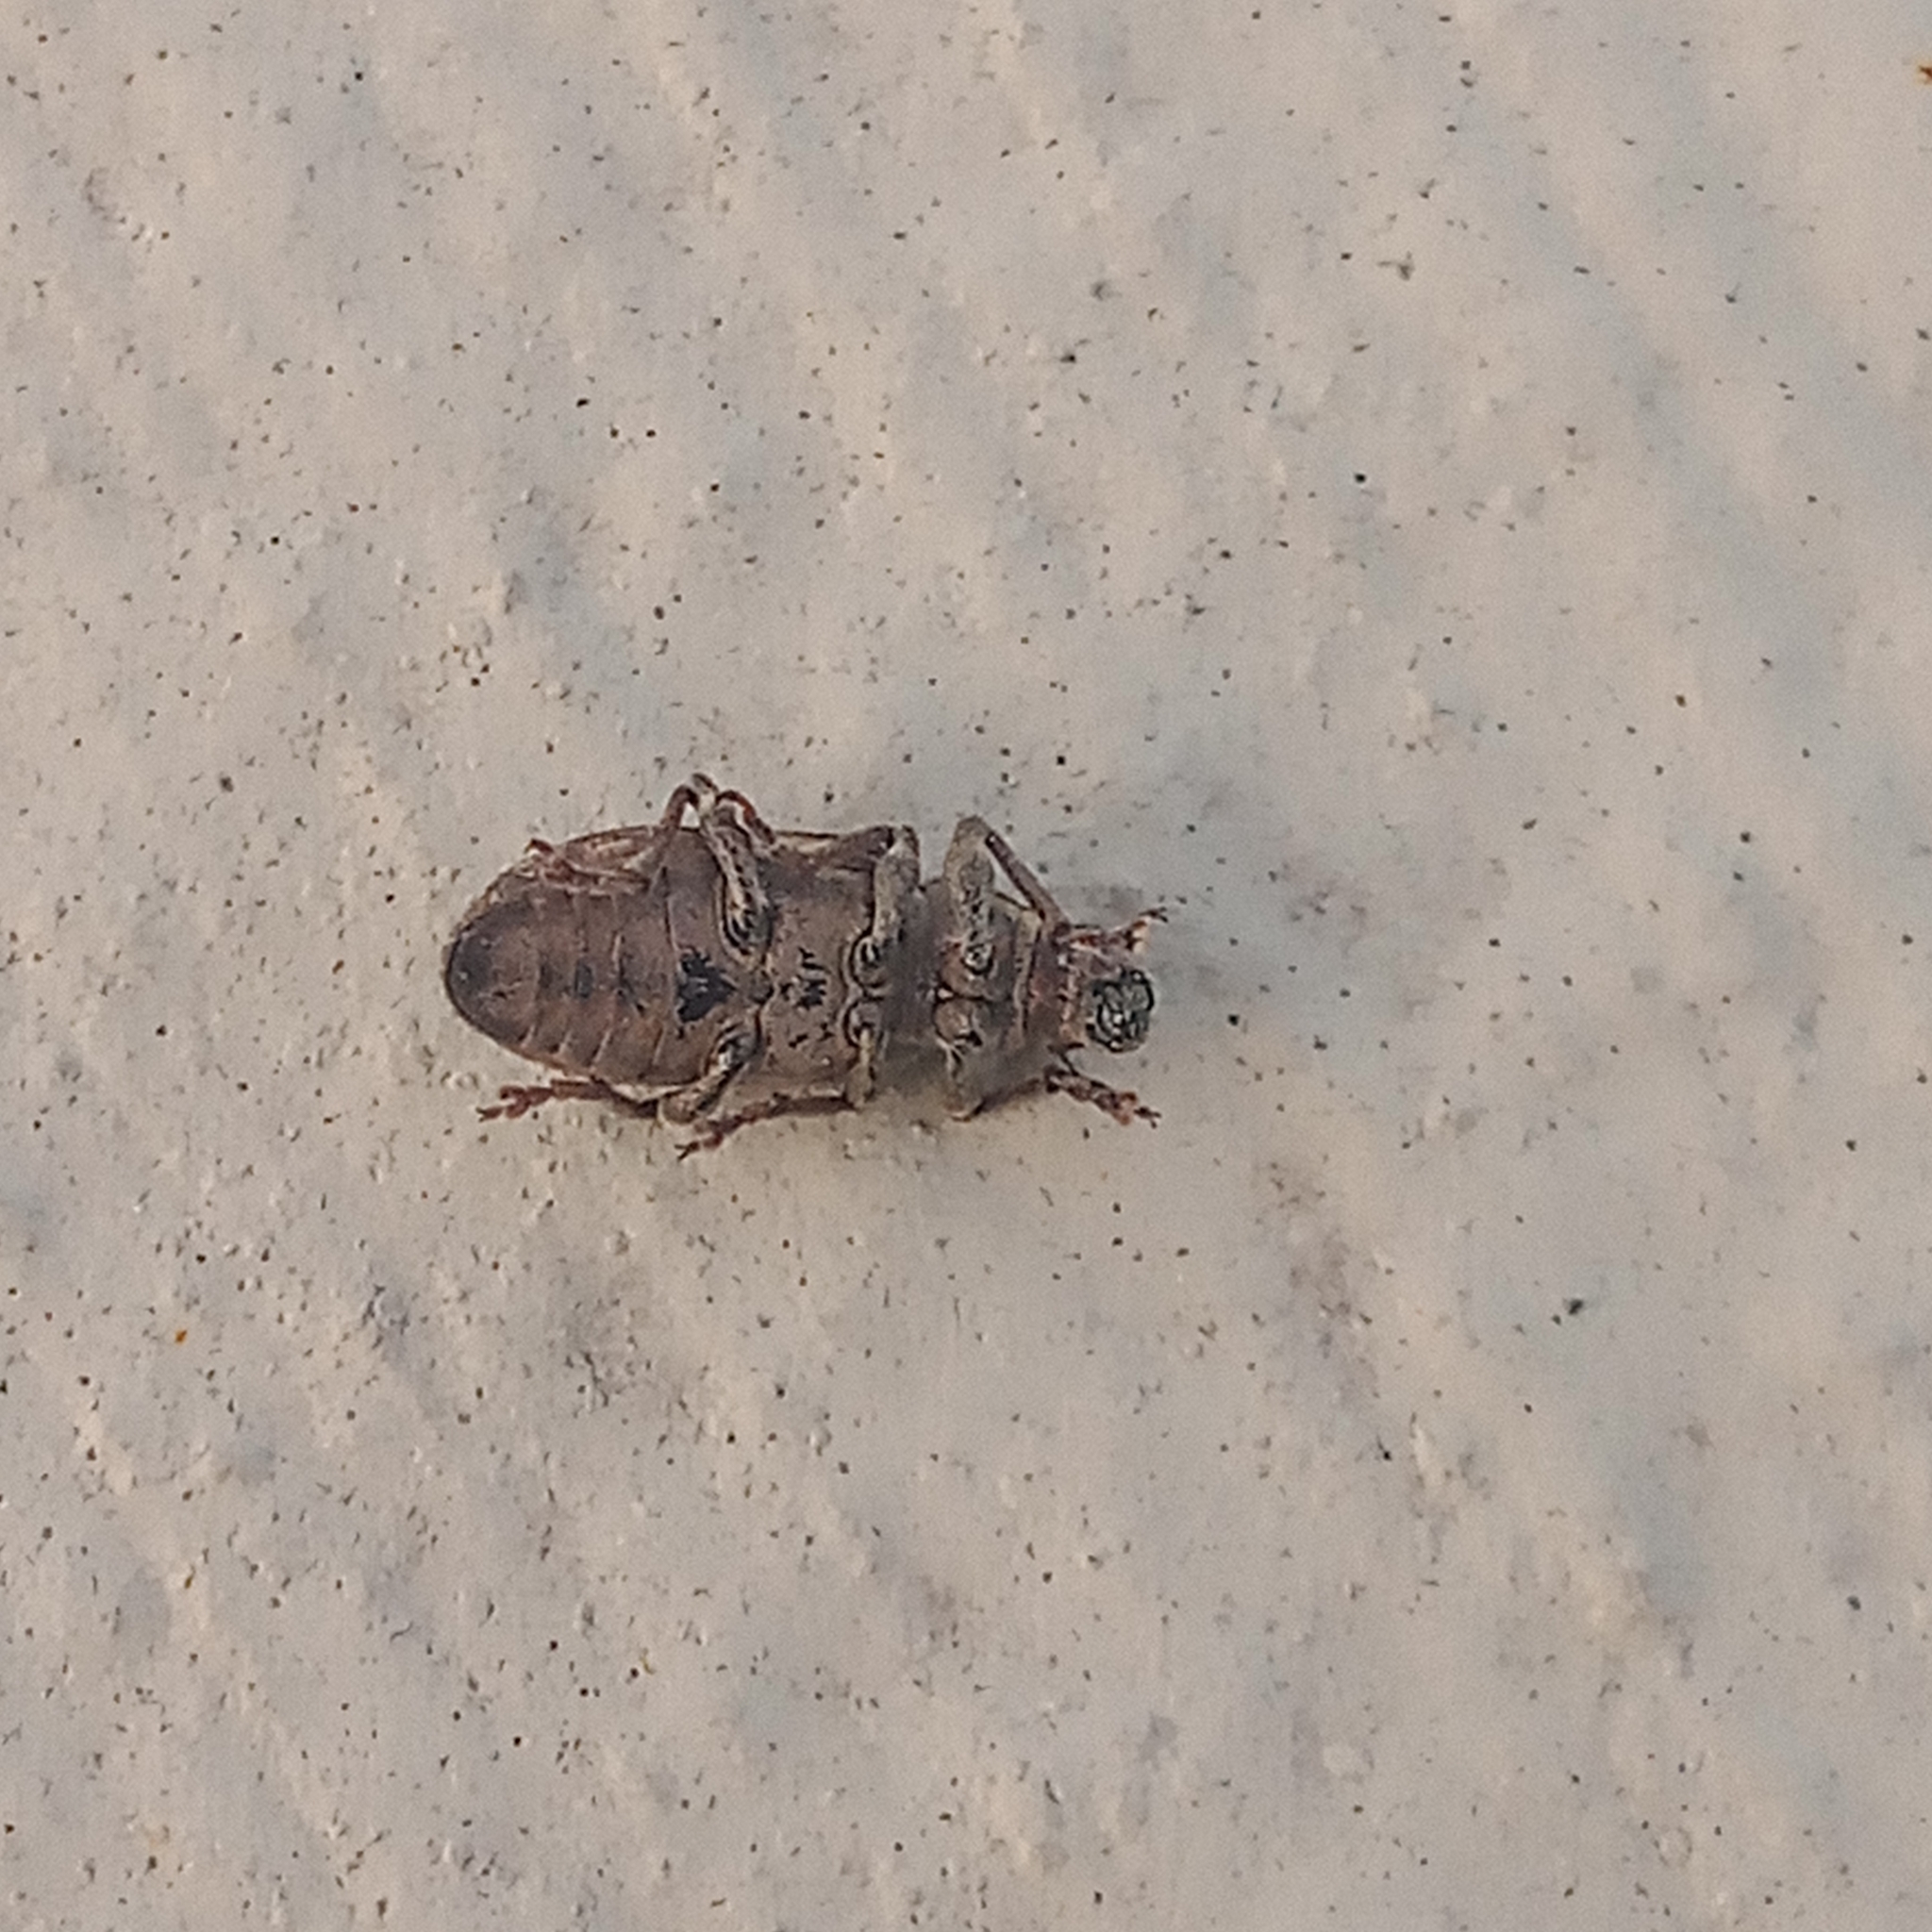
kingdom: Animalia
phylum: Arthropoda
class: Insecta
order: Coleoptera
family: Curculionidae
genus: Sitona
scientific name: Sitona cylindricollis
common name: Weevil
